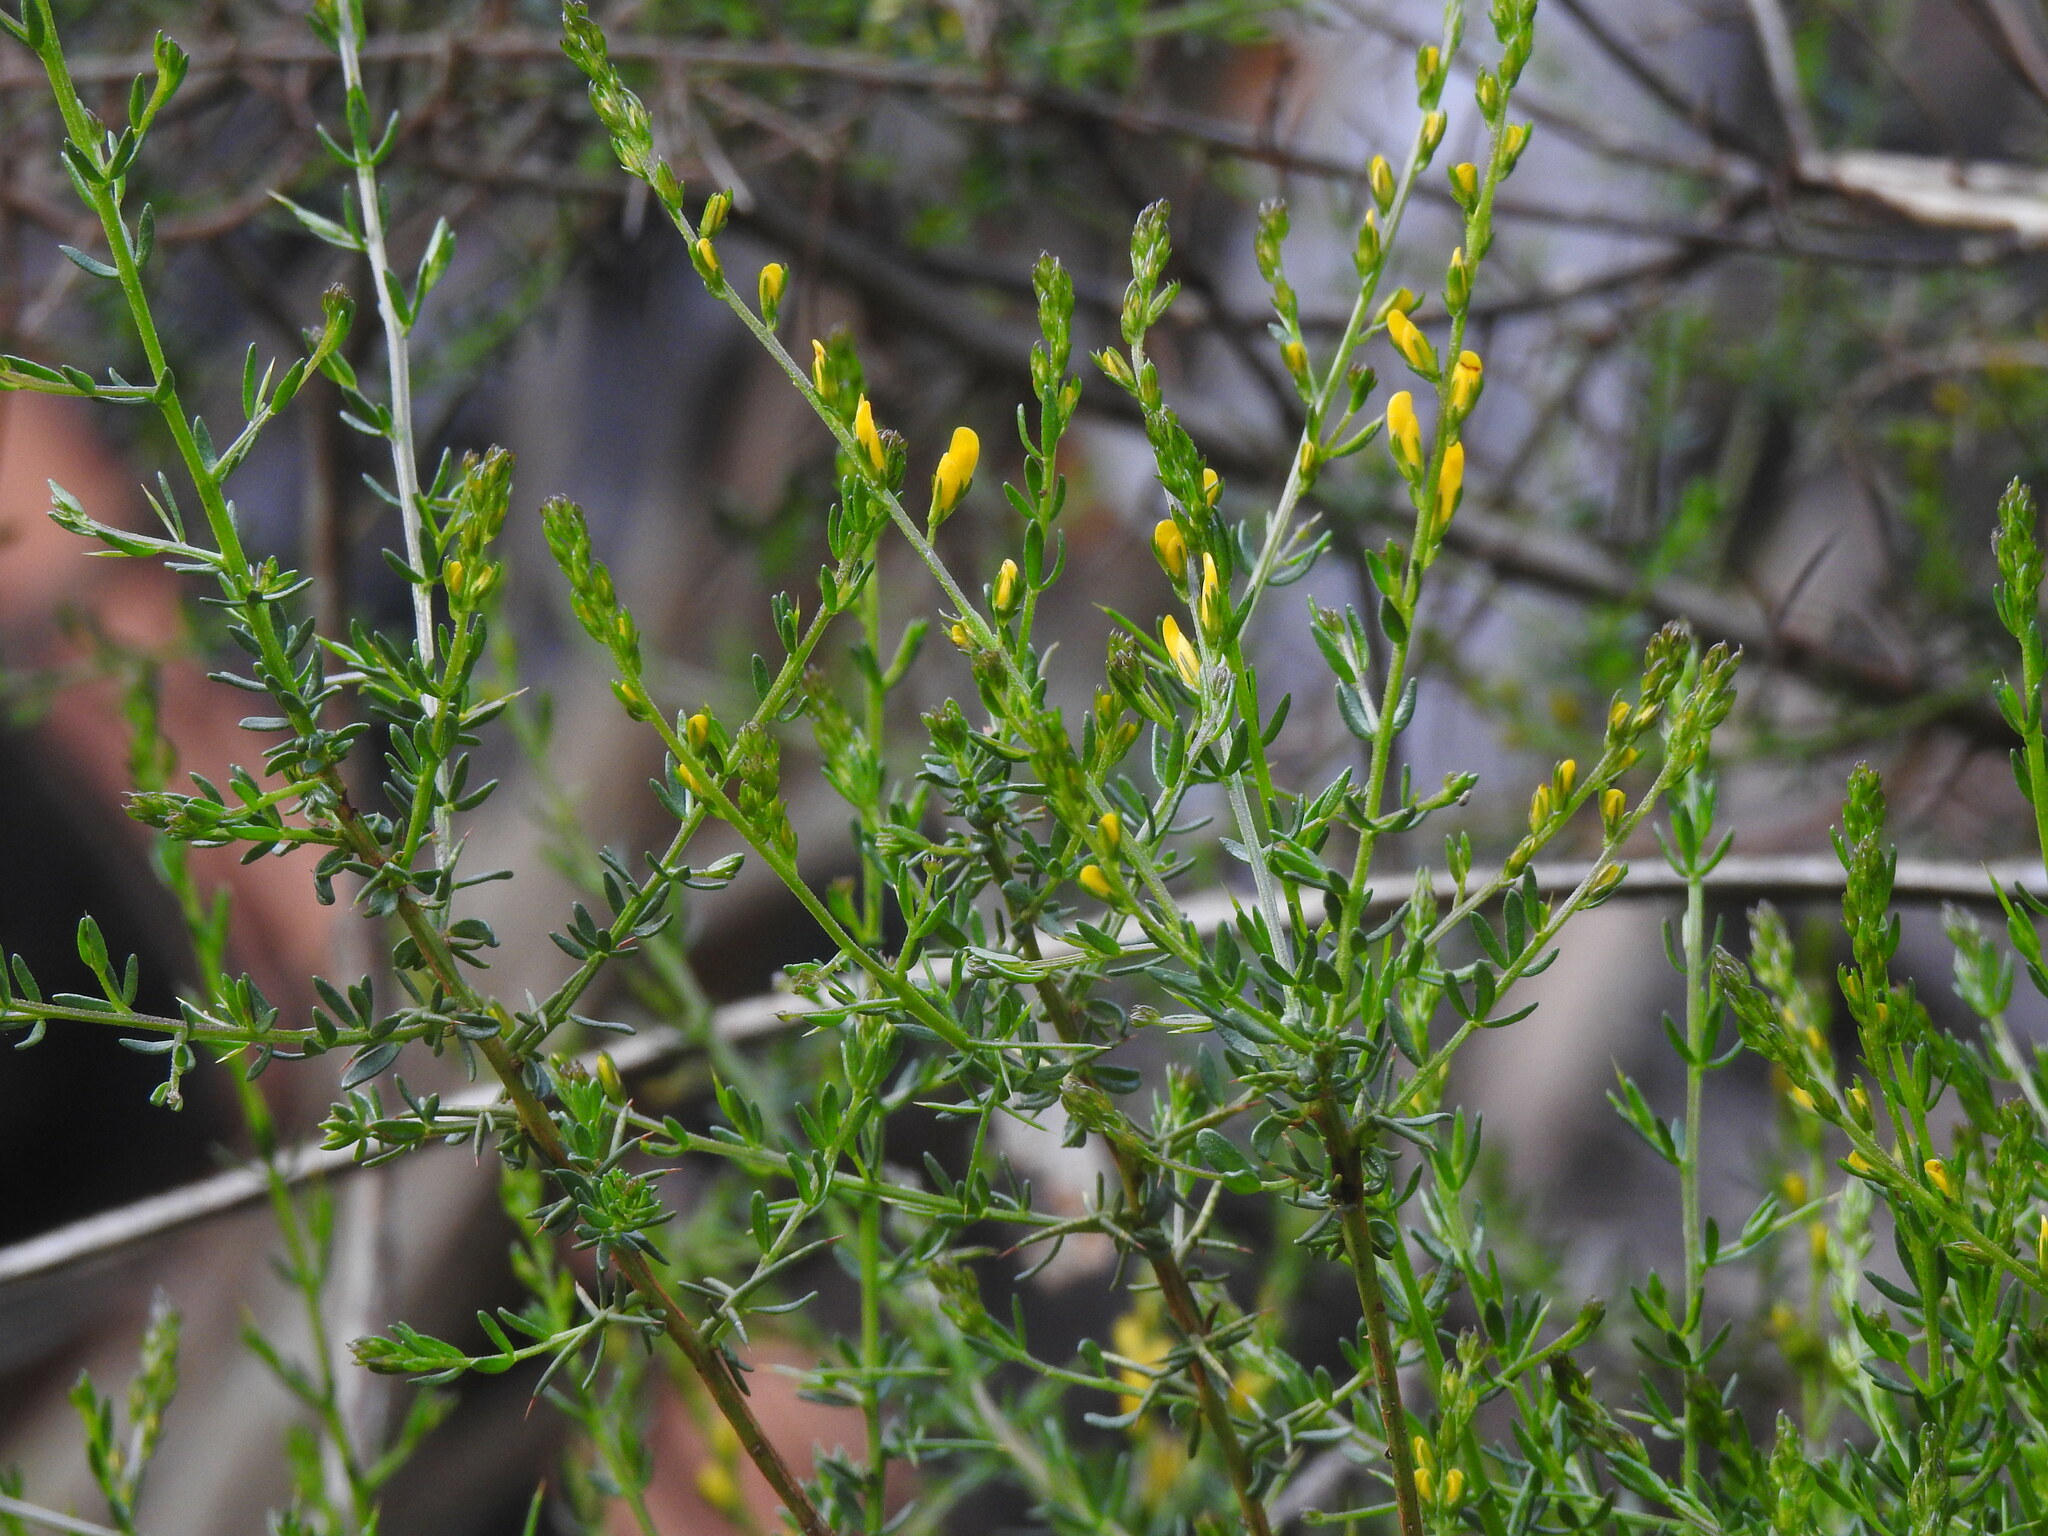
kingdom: Plantae
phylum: Tracheophyta
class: Magnoliopsida
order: Fabales
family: Fabaceae
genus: Genista
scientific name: Genista triacanthos
